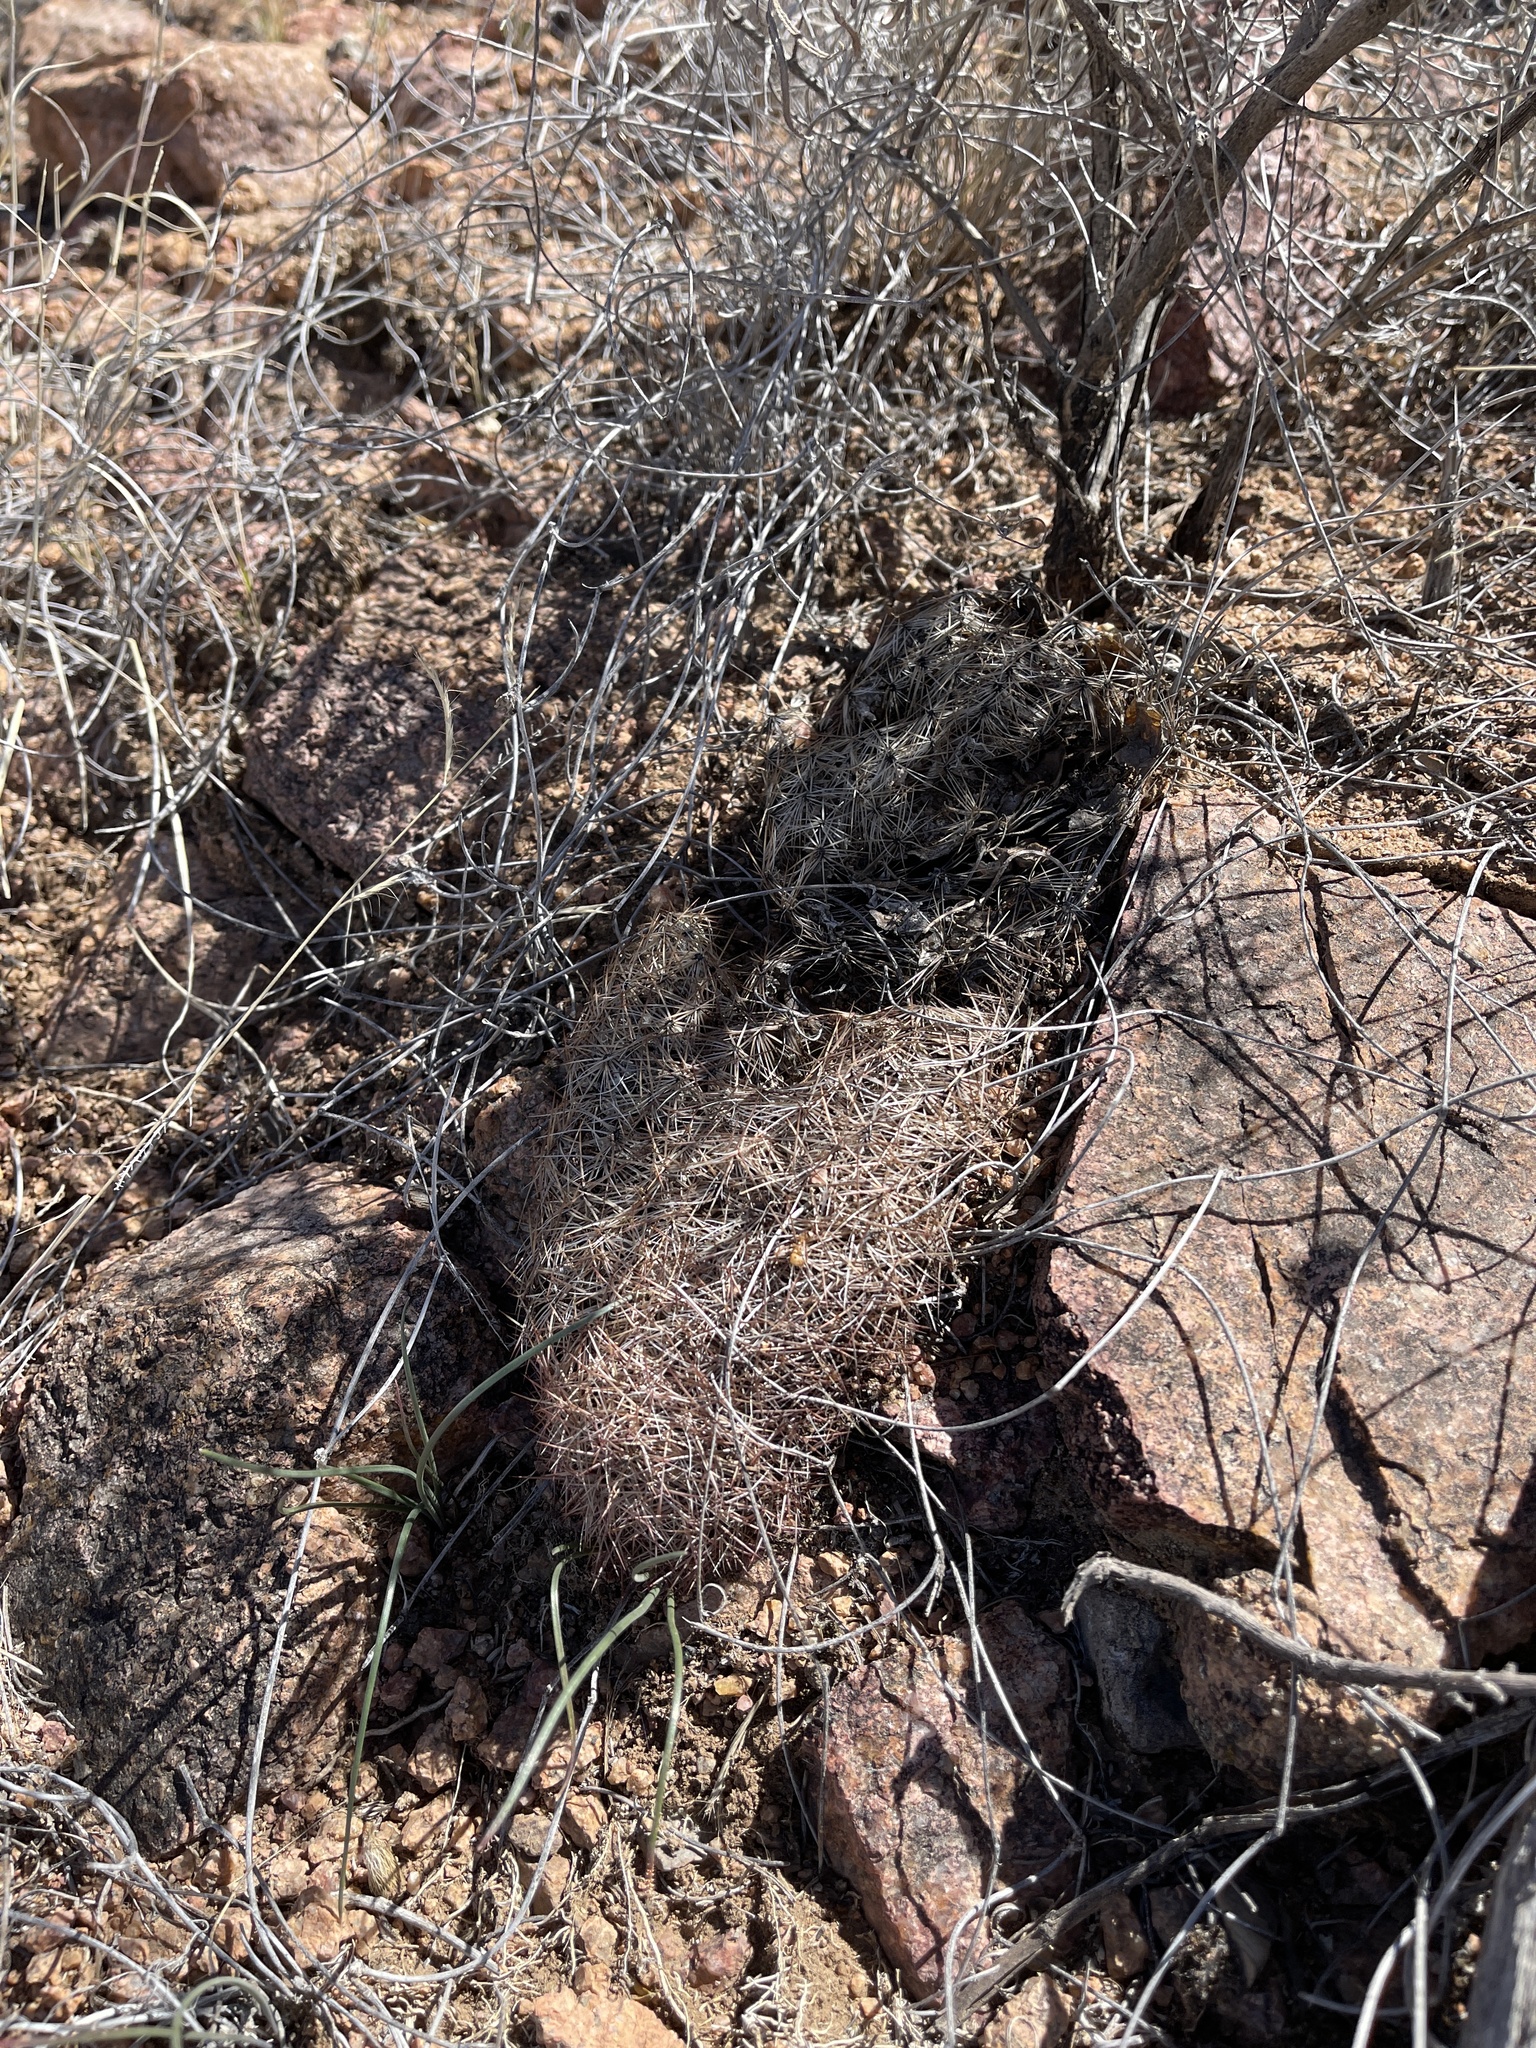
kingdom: Plantae
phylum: Tracheophyta
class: Magnoliopsida
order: Caryophyllales
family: Cactaceae
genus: Sclerocactus
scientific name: Sclerocactus intertextus
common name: White fish-hook cactus
